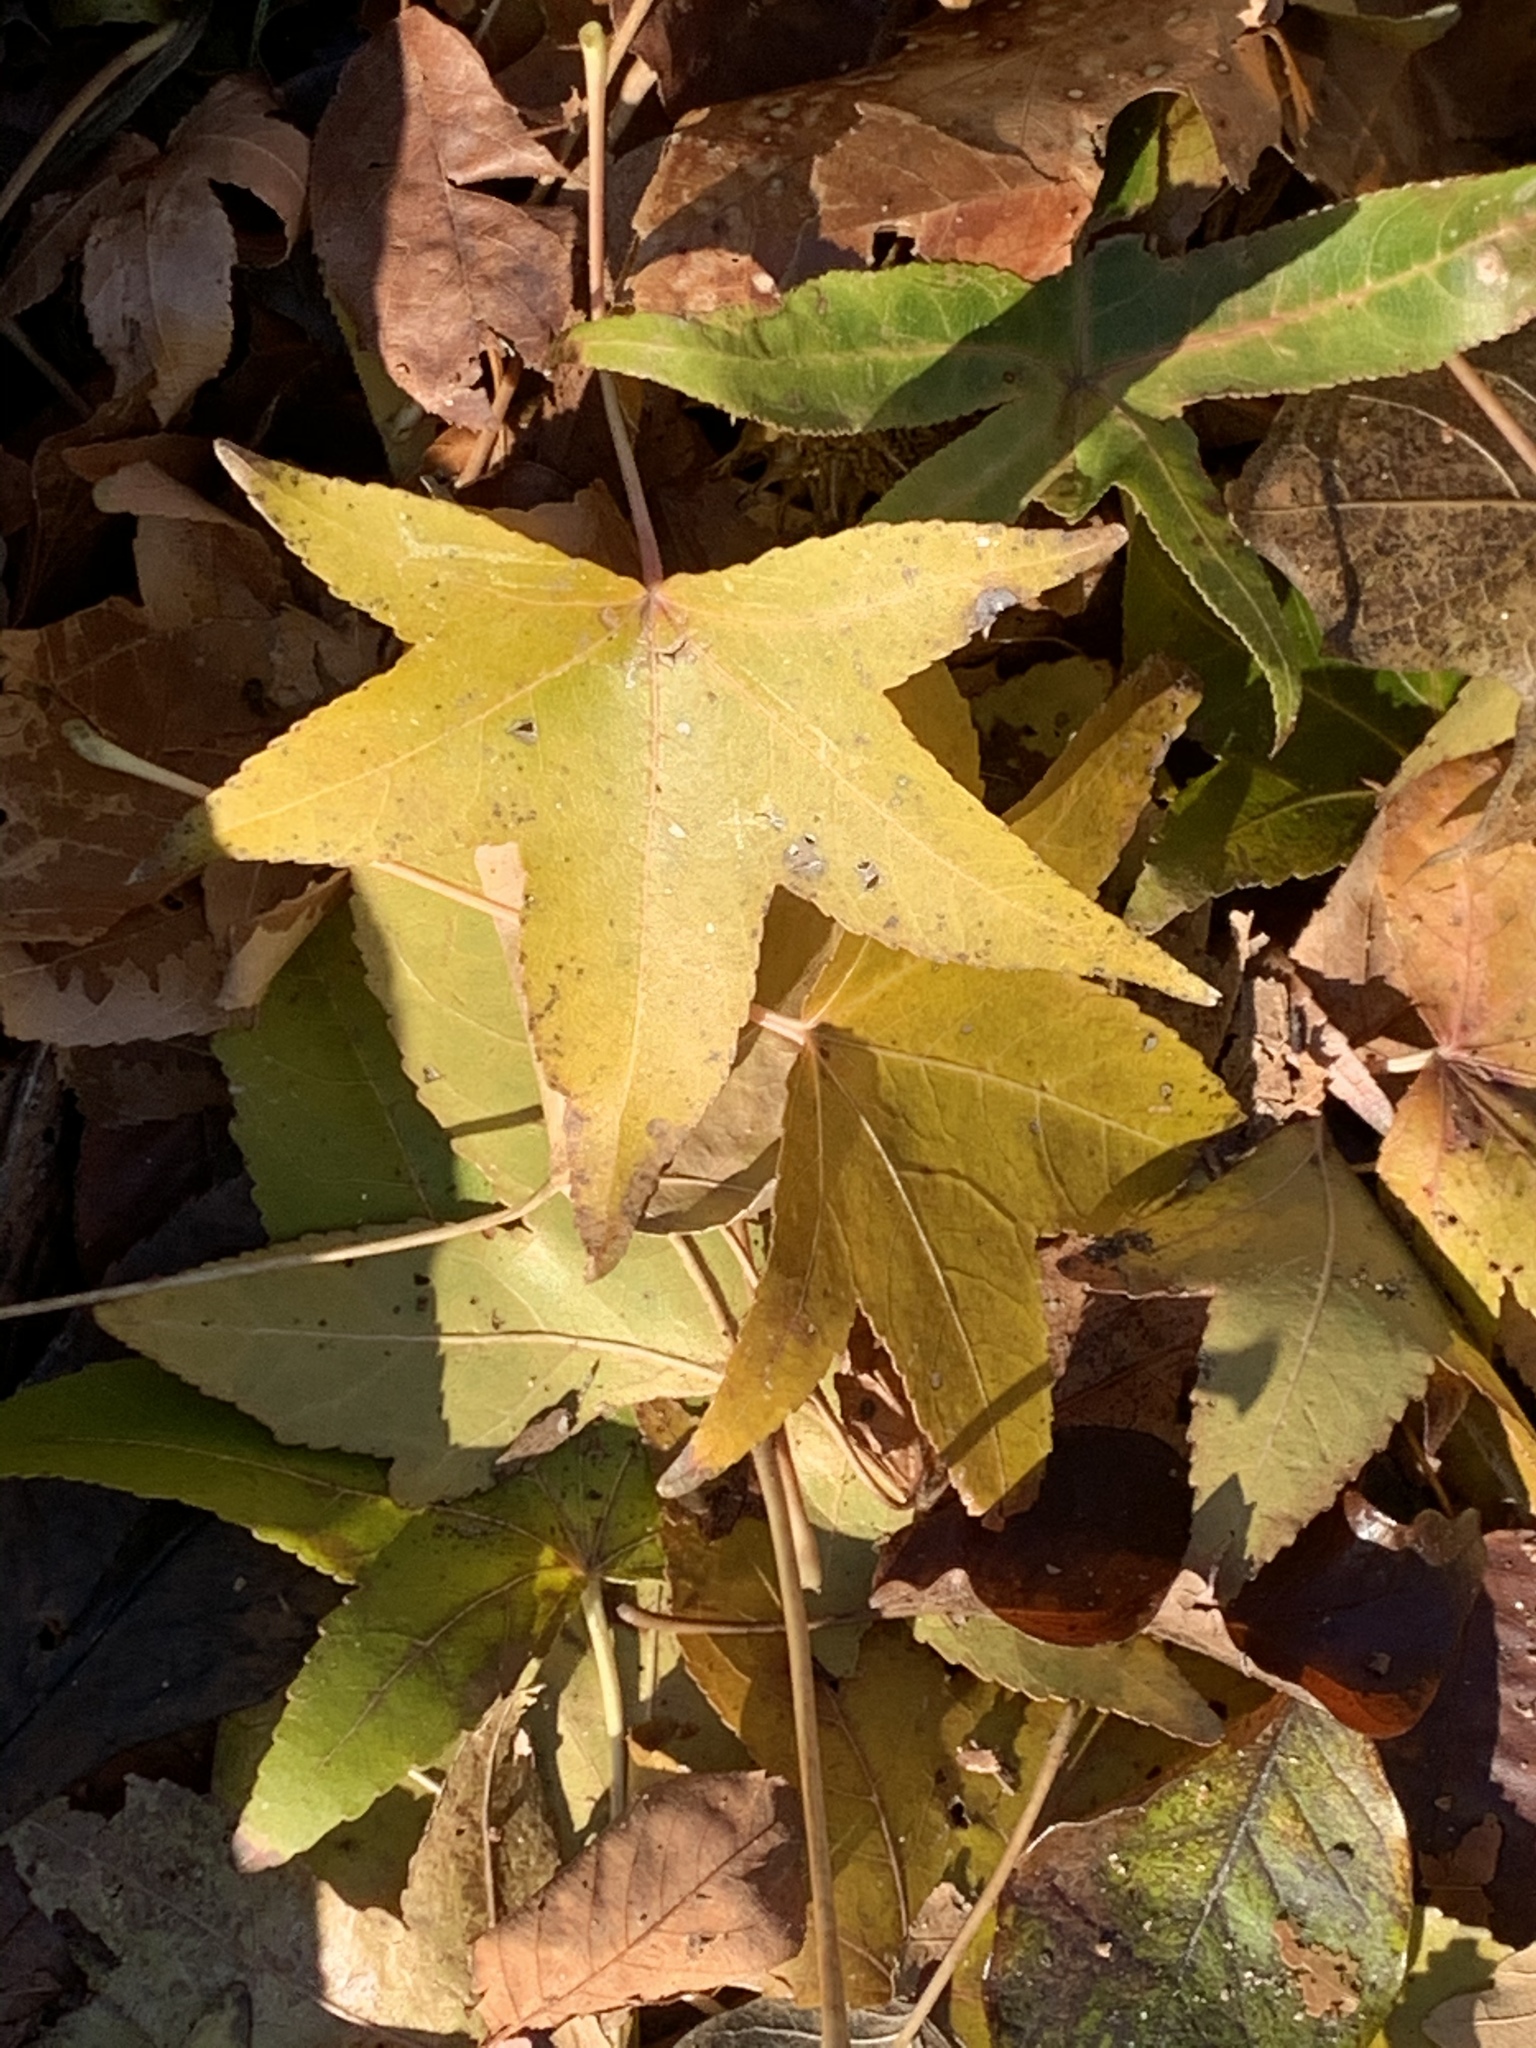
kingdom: Plantae
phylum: Tracheophyta
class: Magnoliopsida
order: Saxifragales
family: Altingiaceae
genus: Liquidambar
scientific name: Liquidambar styraciflua
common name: Sweet gum
